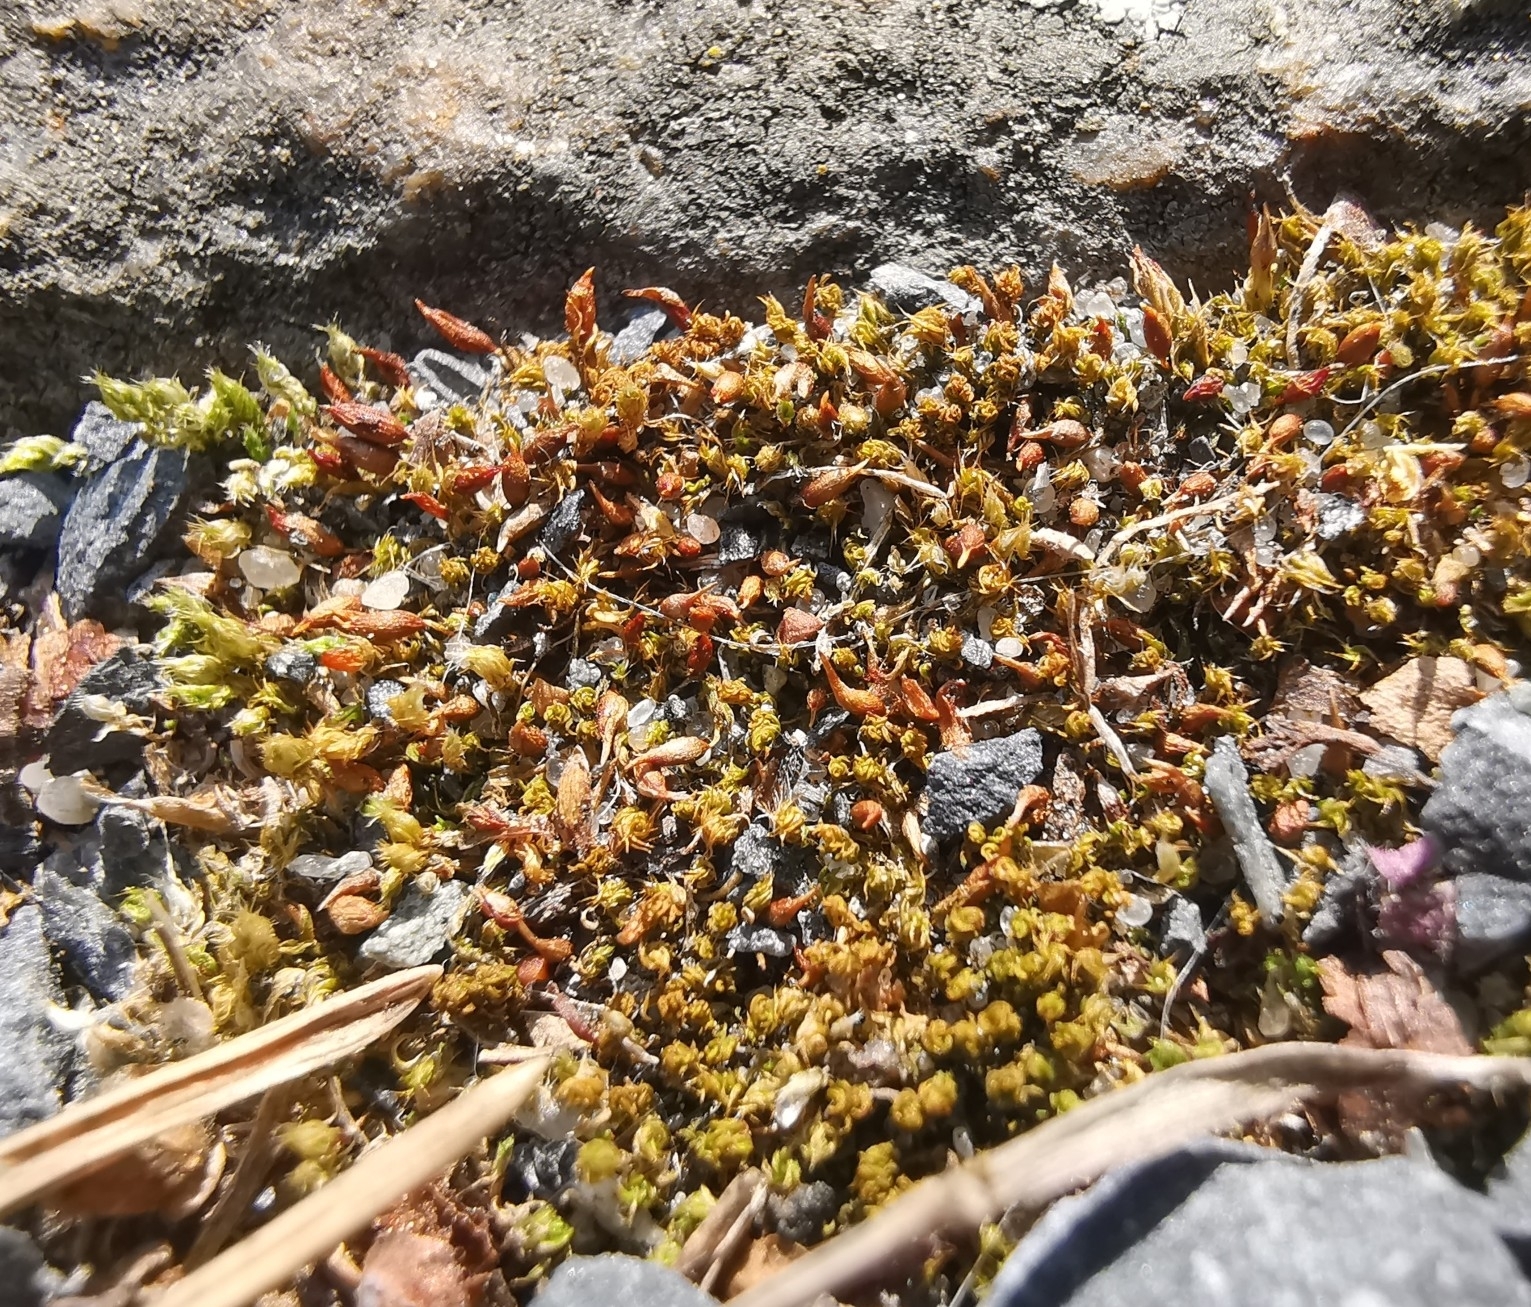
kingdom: Plantae
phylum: Bryophyta
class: Bryopsida
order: Pottiales
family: Pottiaceae
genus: Tortula
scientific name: Tortula protobryoides
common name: Tall pottia
